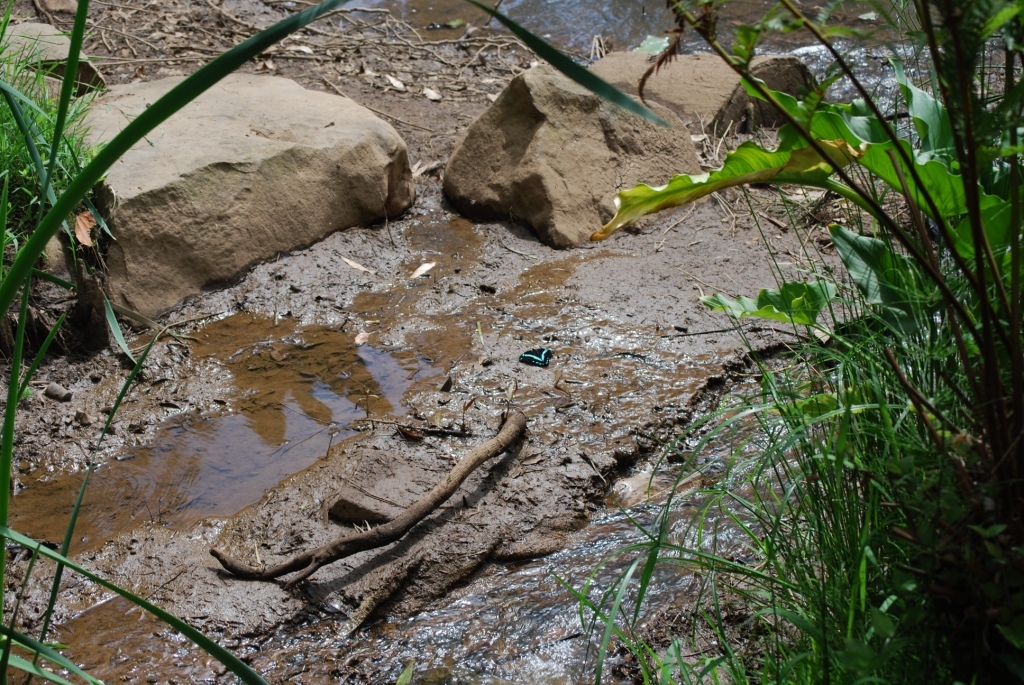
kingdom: Animalia
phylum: Arthropoda
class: Insecta
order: Lepidoptera
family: Papilionidae
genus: Papilio
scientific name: Papilio nireus
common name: Greenbanded swallowtail
